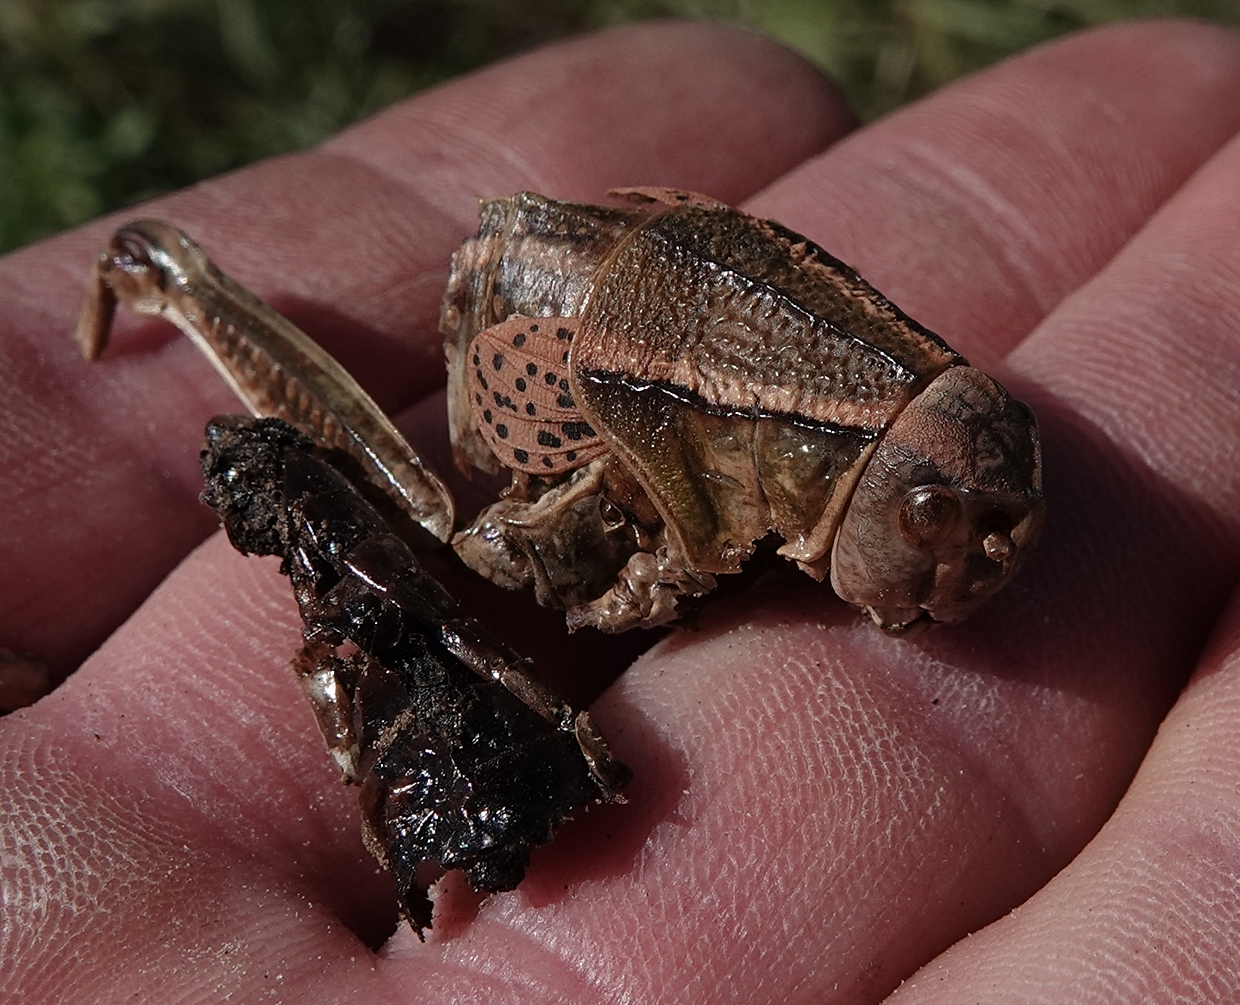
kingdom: Animalia
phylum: Arthropoda
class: Insecta
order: Orthoptera
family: Romaleidae
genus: Brachystola
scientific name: Brachystola magna
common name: Plains lubber grasshopper
